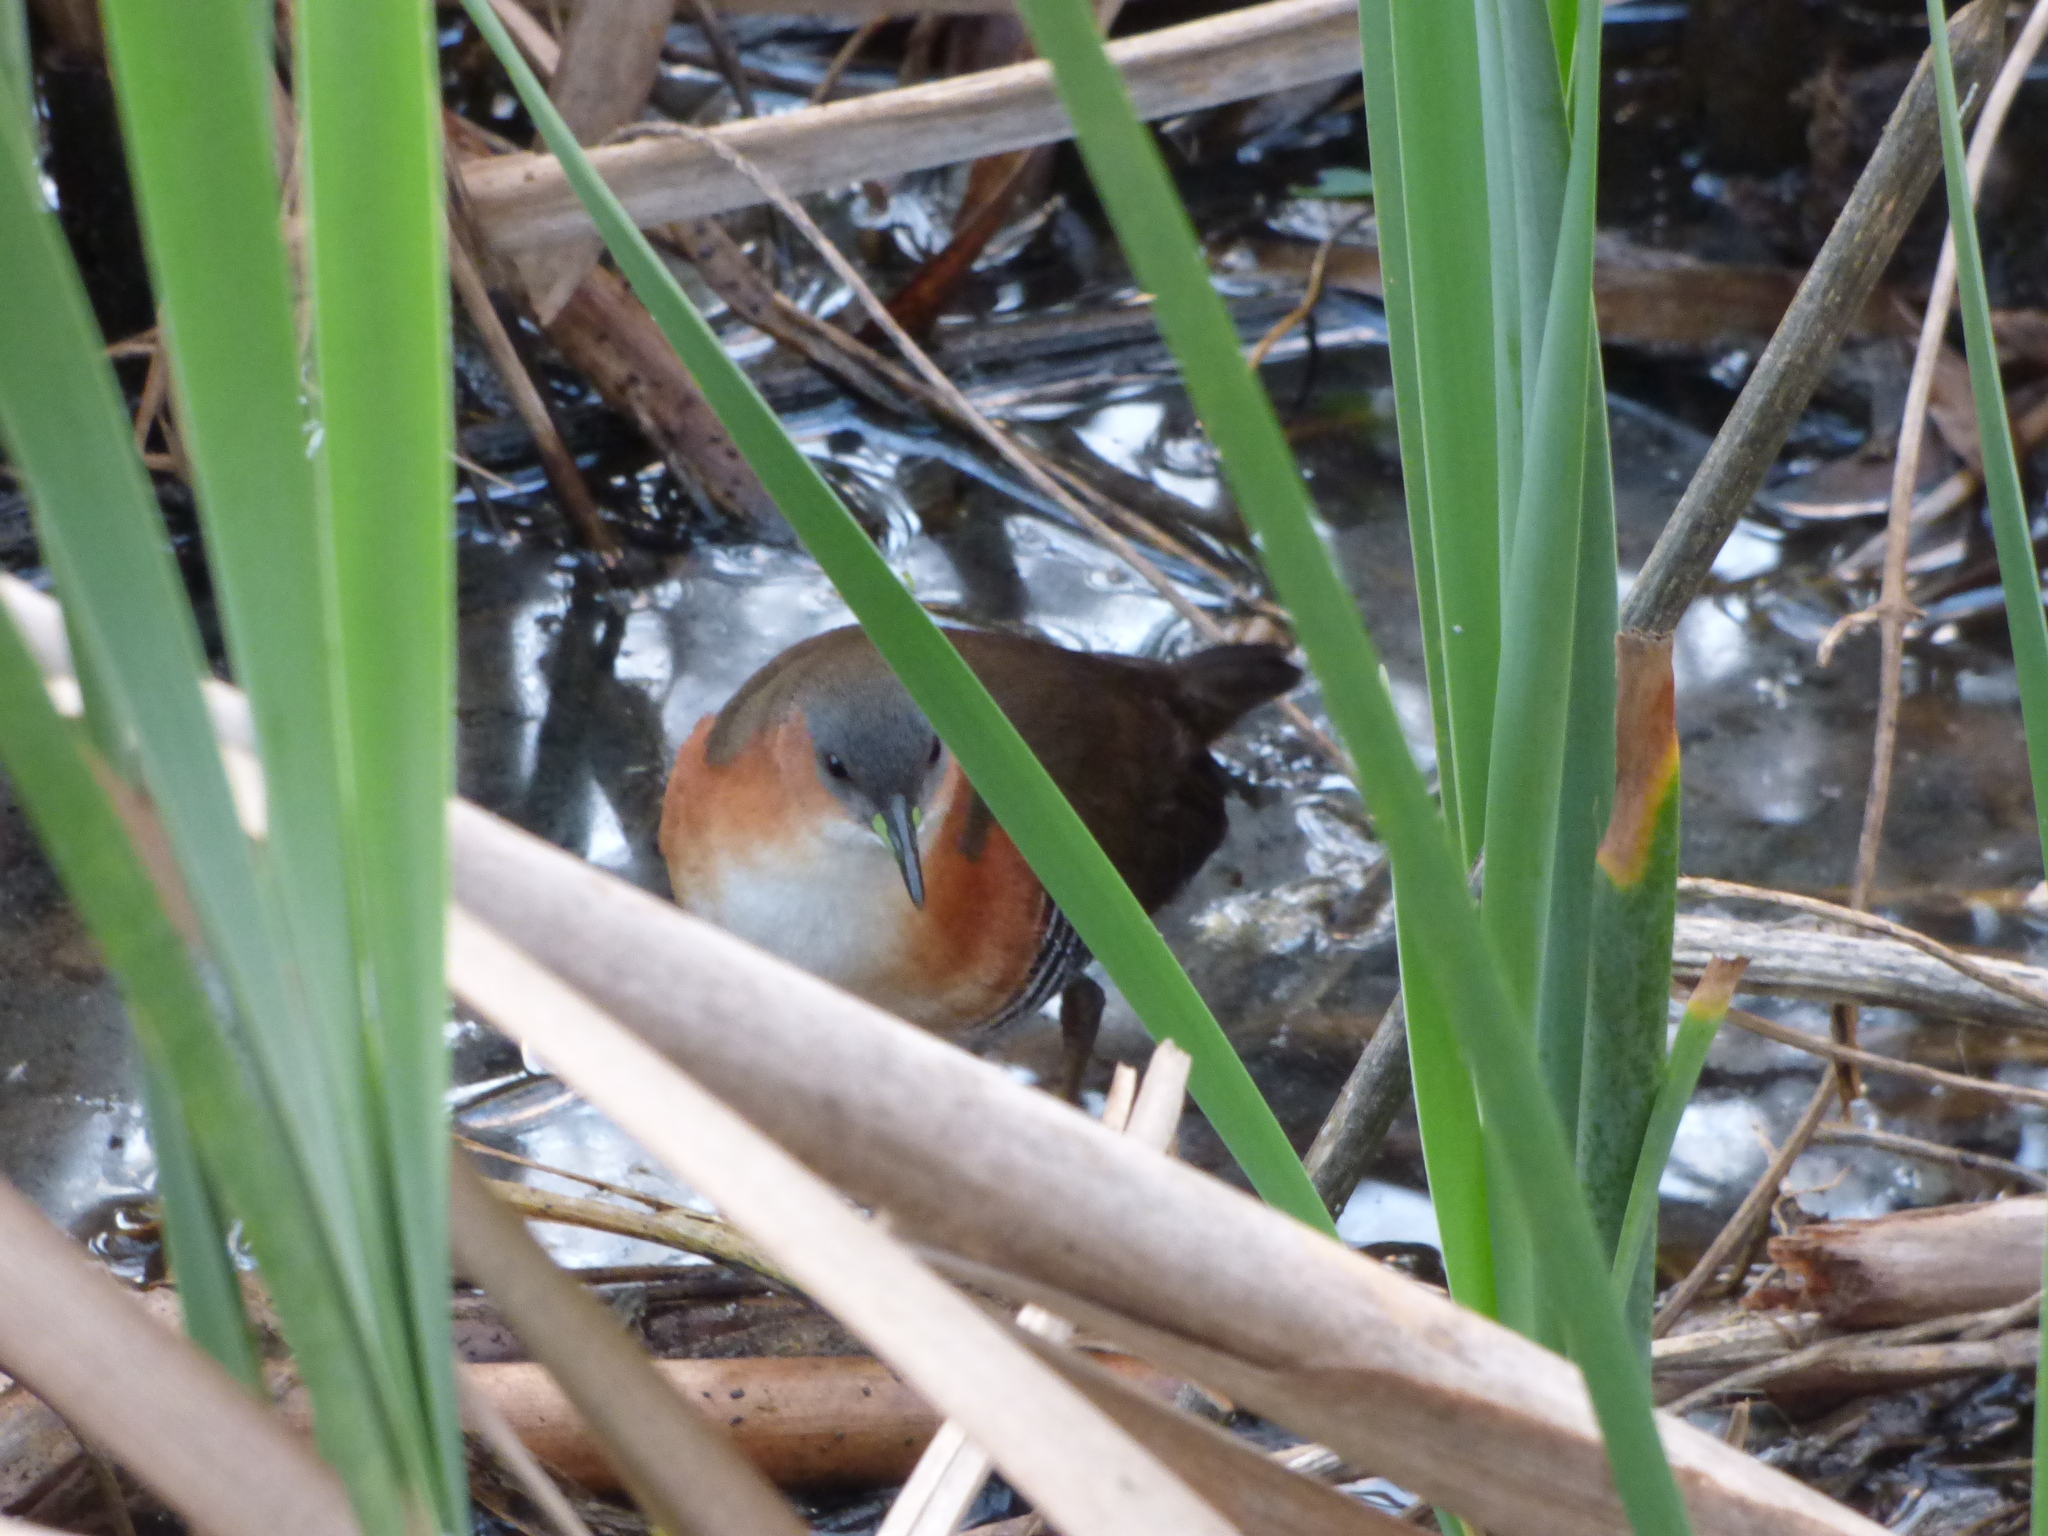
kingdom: Animalia
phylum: Chordata
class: Aves
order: Gruiformes
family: Rallidae
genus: Laterallus
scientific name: Laterallus melanophaius
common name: Rufous-sided crake
